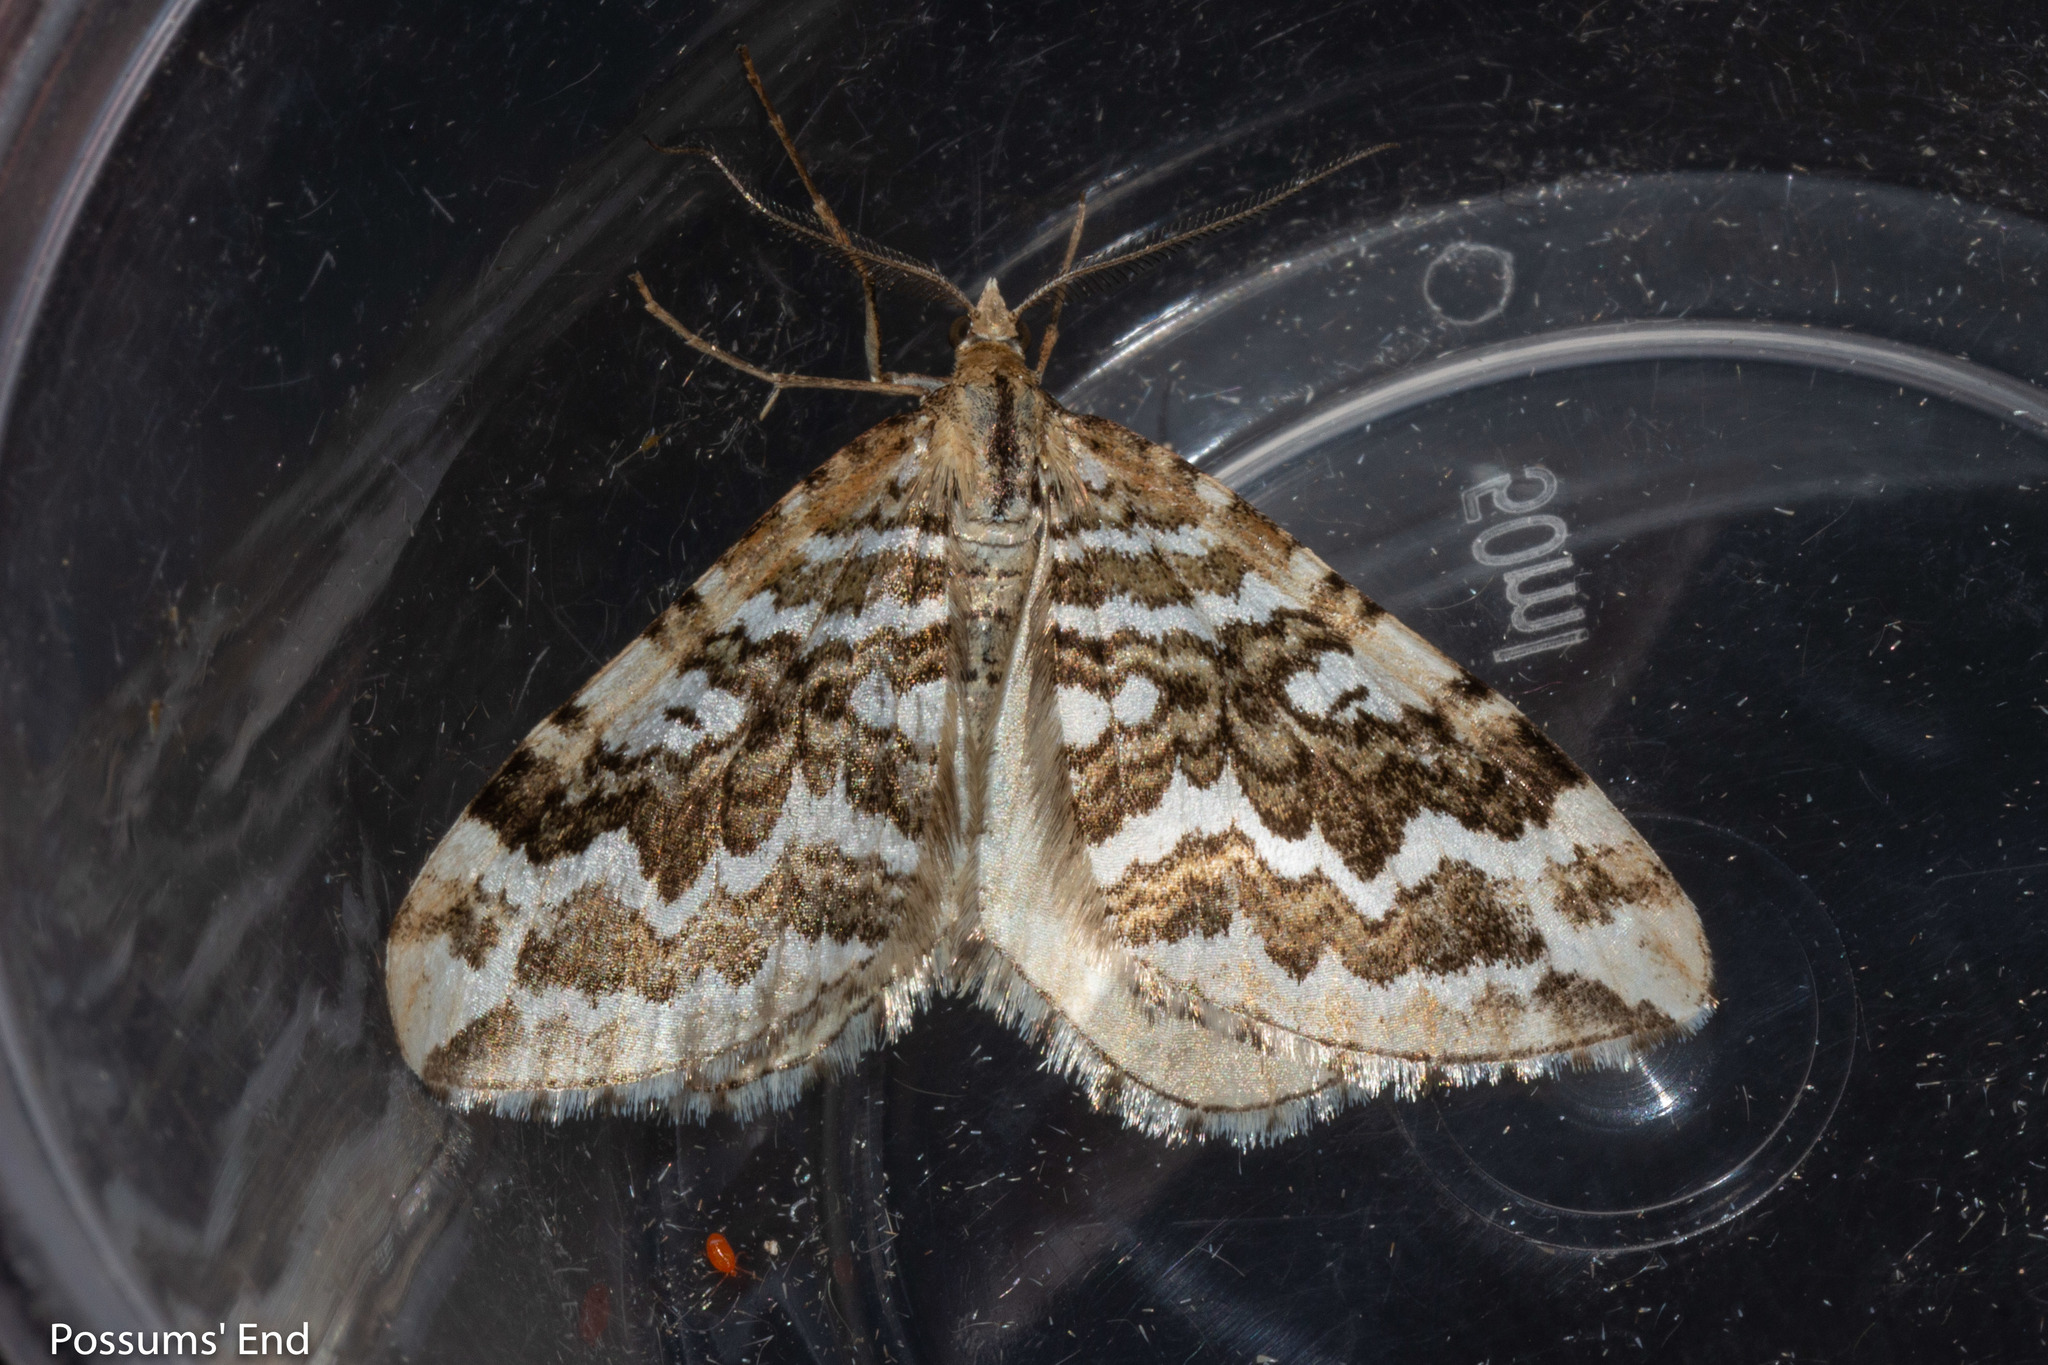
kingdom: Animalia
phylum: Arthropoda
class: Insecta
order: Lepidoptera
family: Geometridae
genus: Asaphodes
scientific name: Asaphodes clarata
